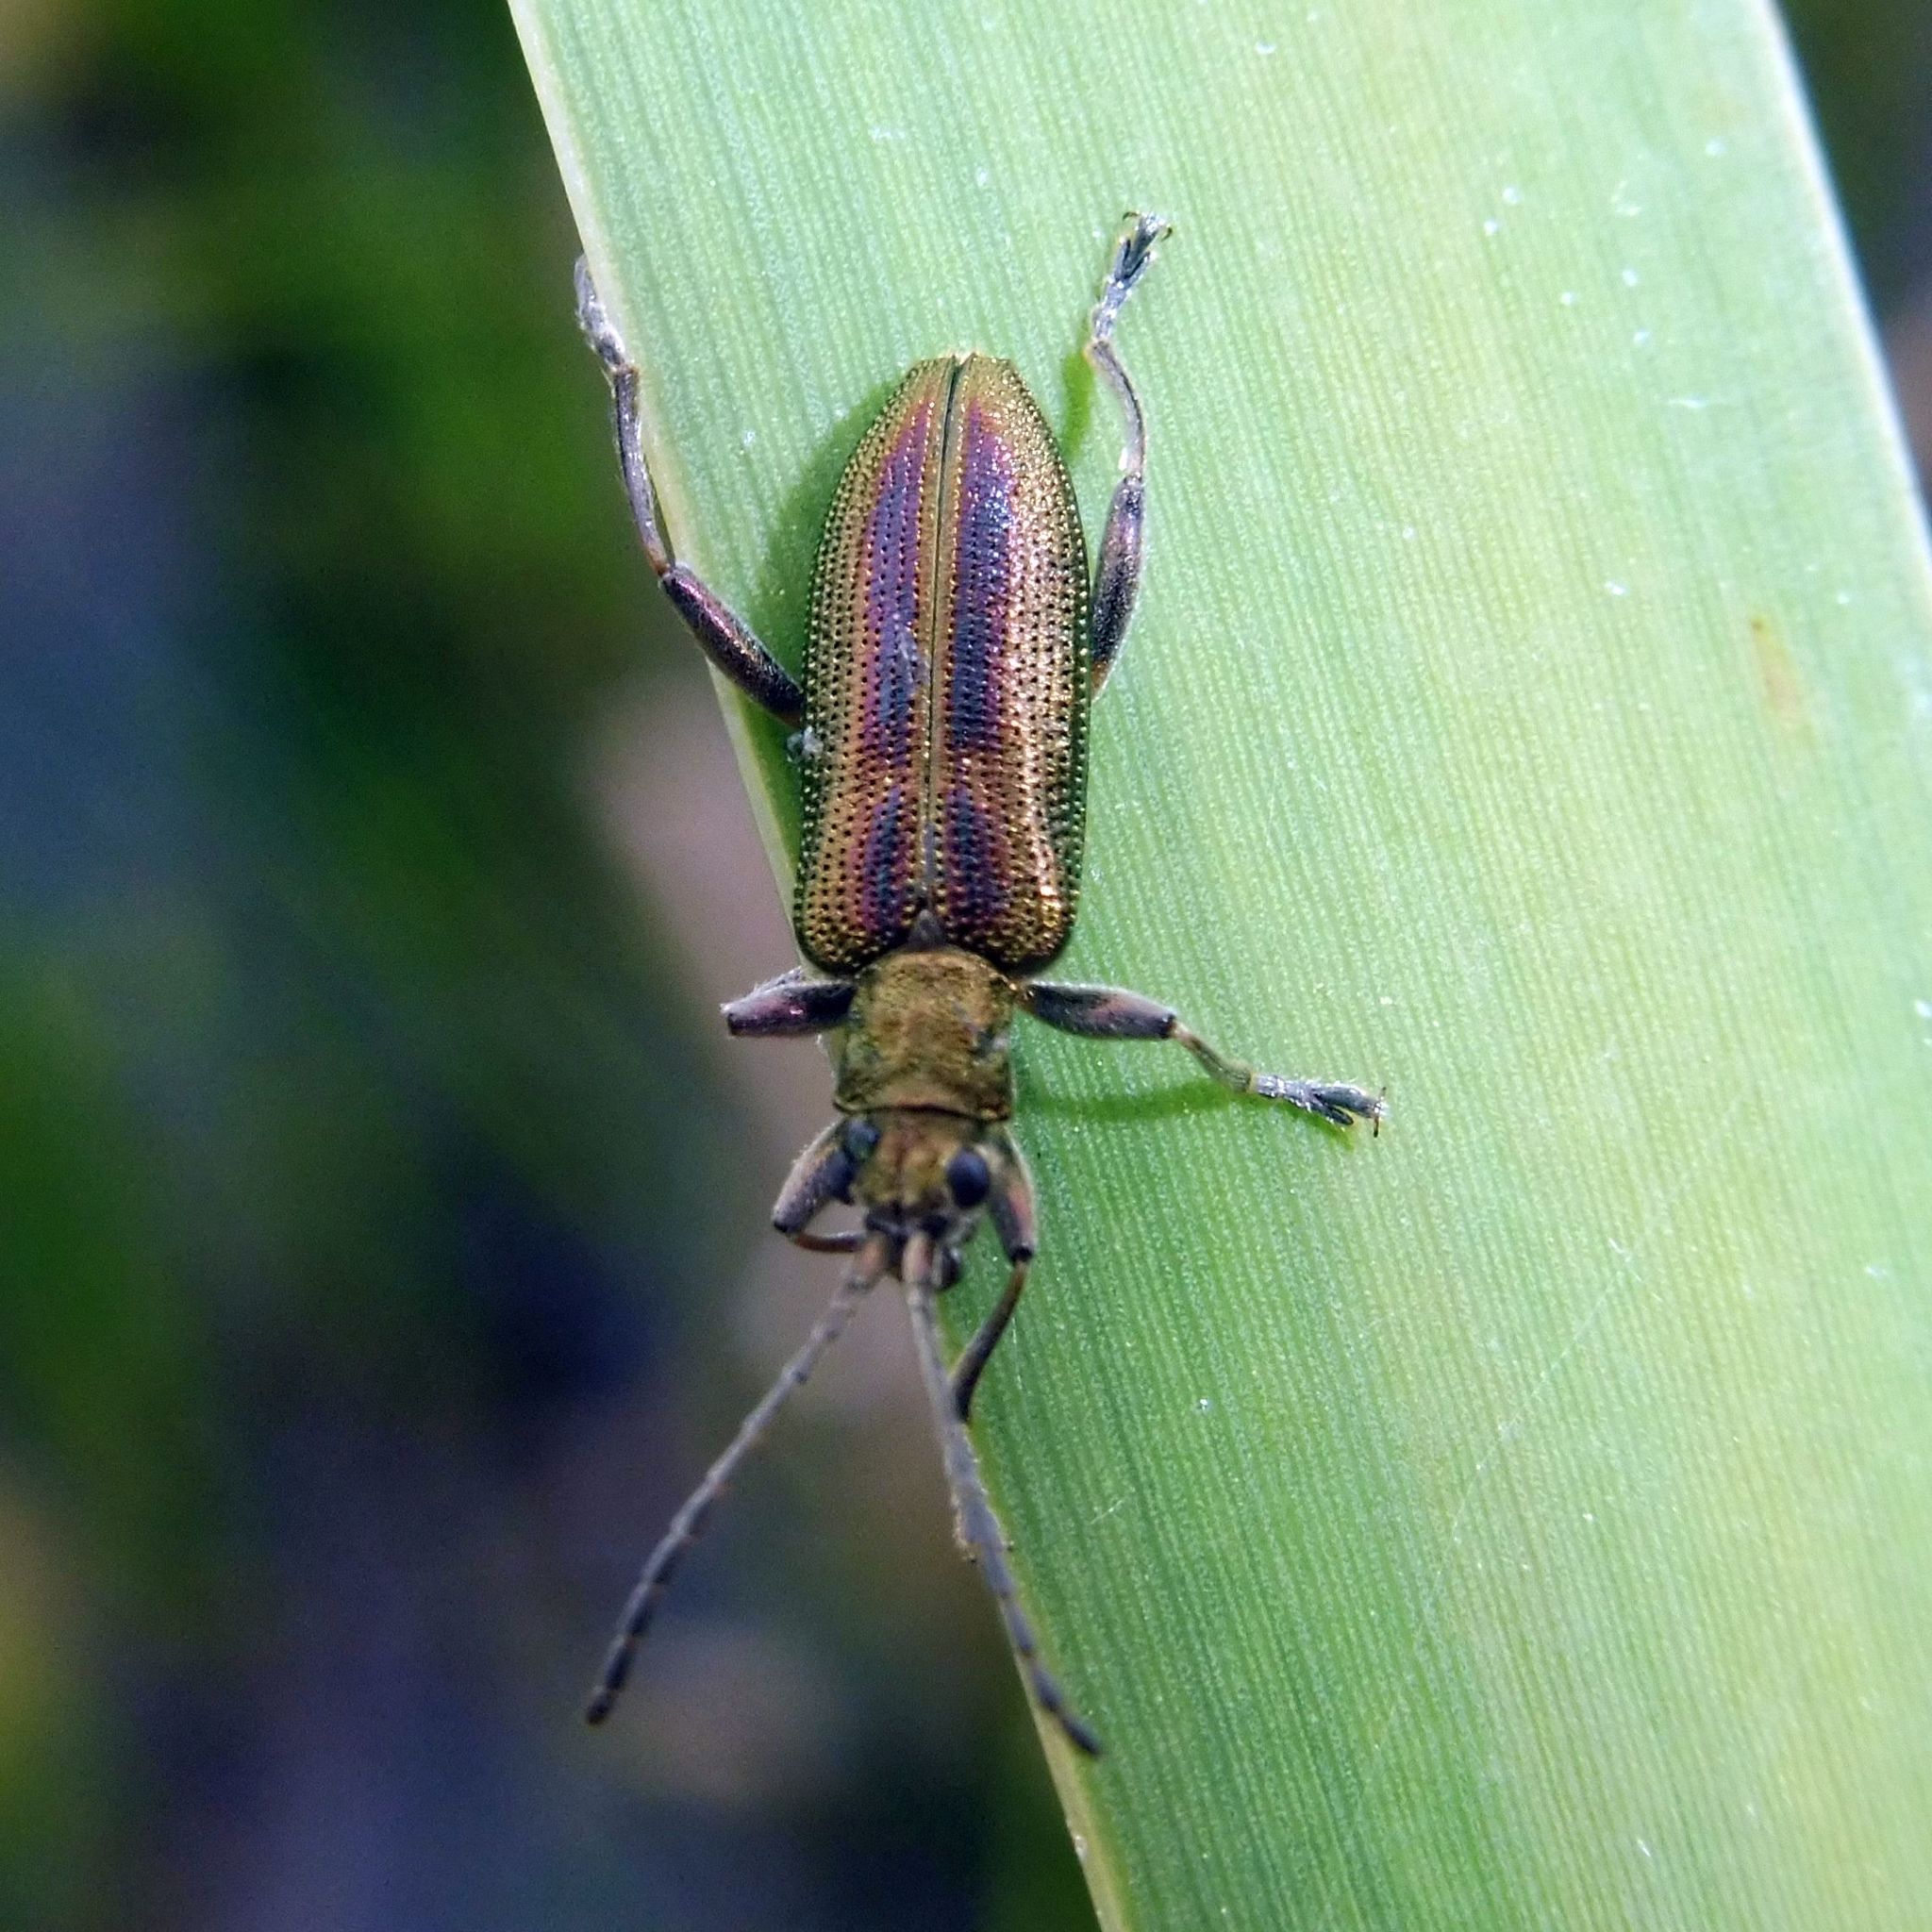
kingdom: Animalia
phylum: Arthropoda
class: Insecta
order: Coleoptera
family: Chrysomelidae
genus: Donacia
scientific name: Donacia vulgaris
